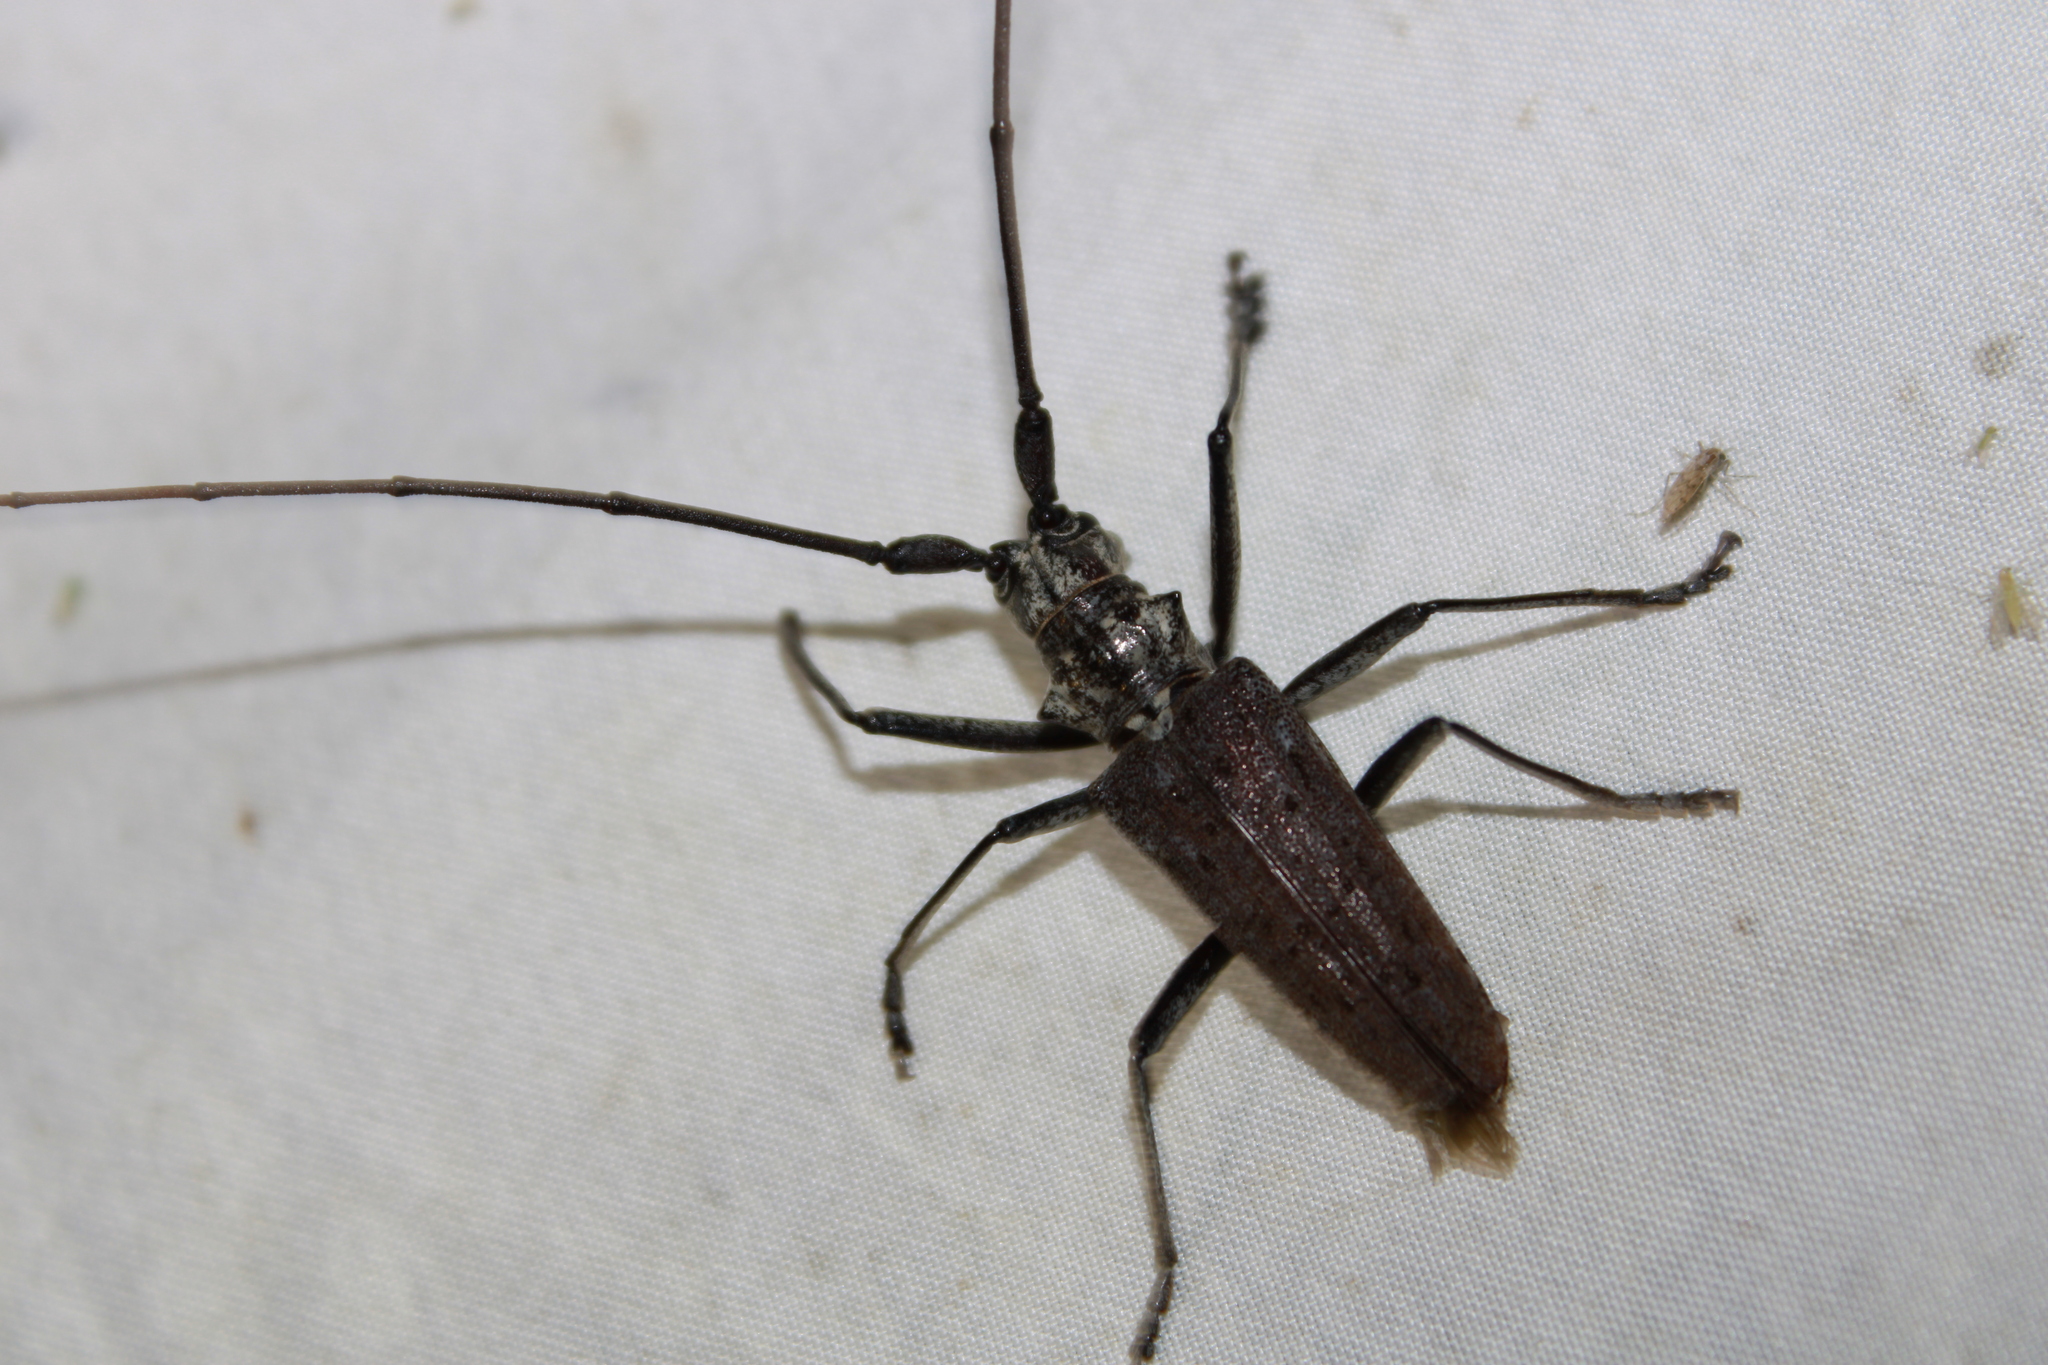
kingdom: Animalia
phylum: Arthropoda
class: Insecta
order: Coleoptera
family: Cerambycidae
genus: Monochamus
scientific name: Monochamus notatus
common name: Northeastern pine sawyer beetle
